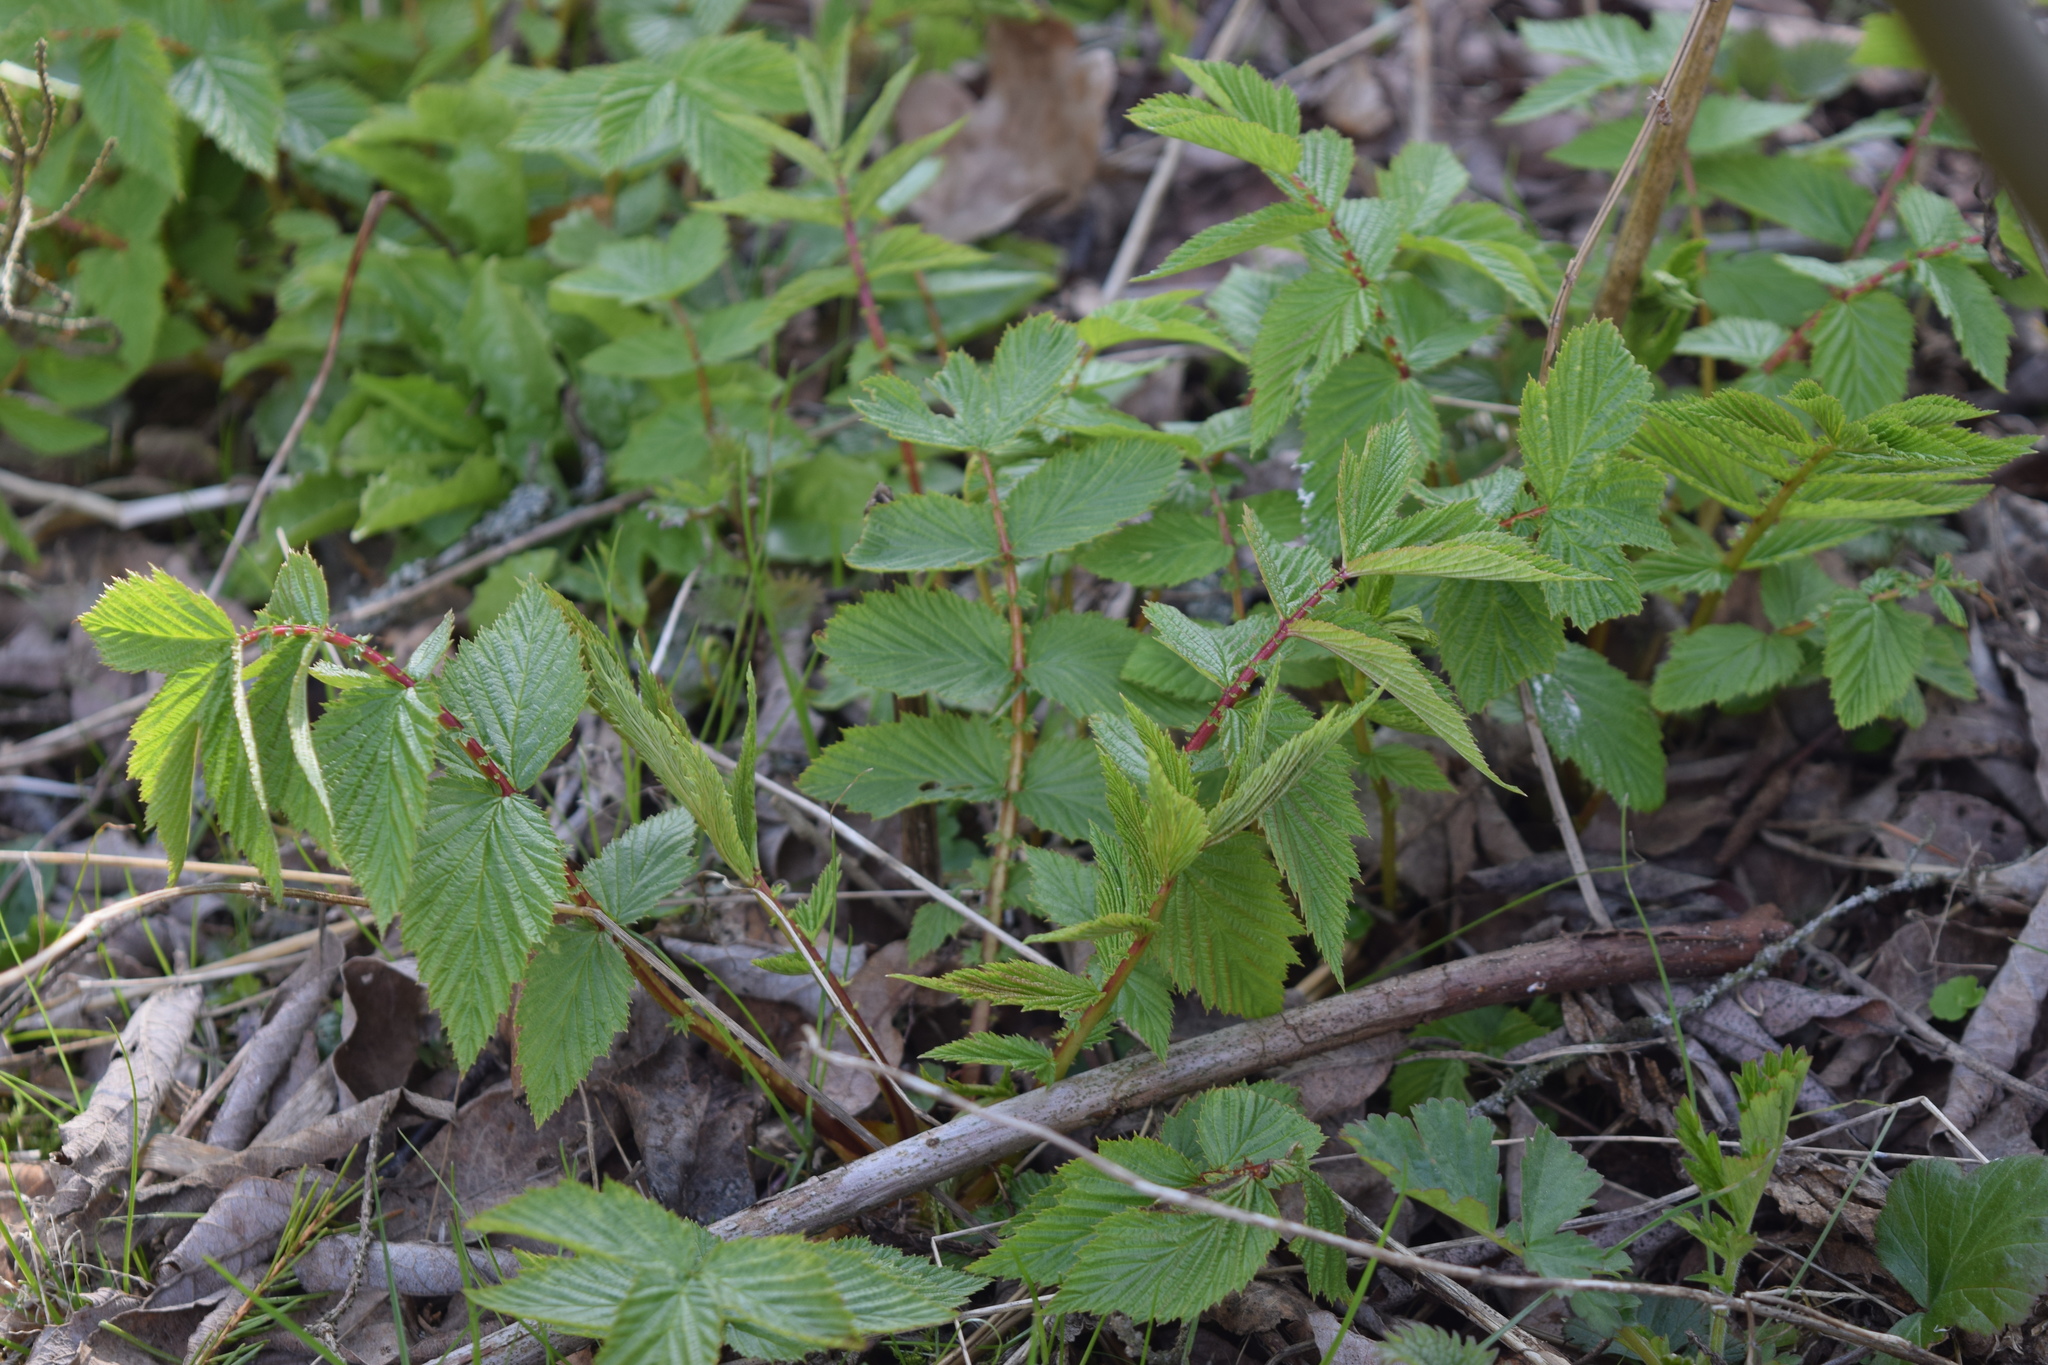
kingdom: Plantae
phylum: Tracheophyta
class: Magnoliopsida
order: Rosales
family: Rosaceae
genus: Filipendula
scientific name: Filipendula ulmaria
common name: Meadowsweet
